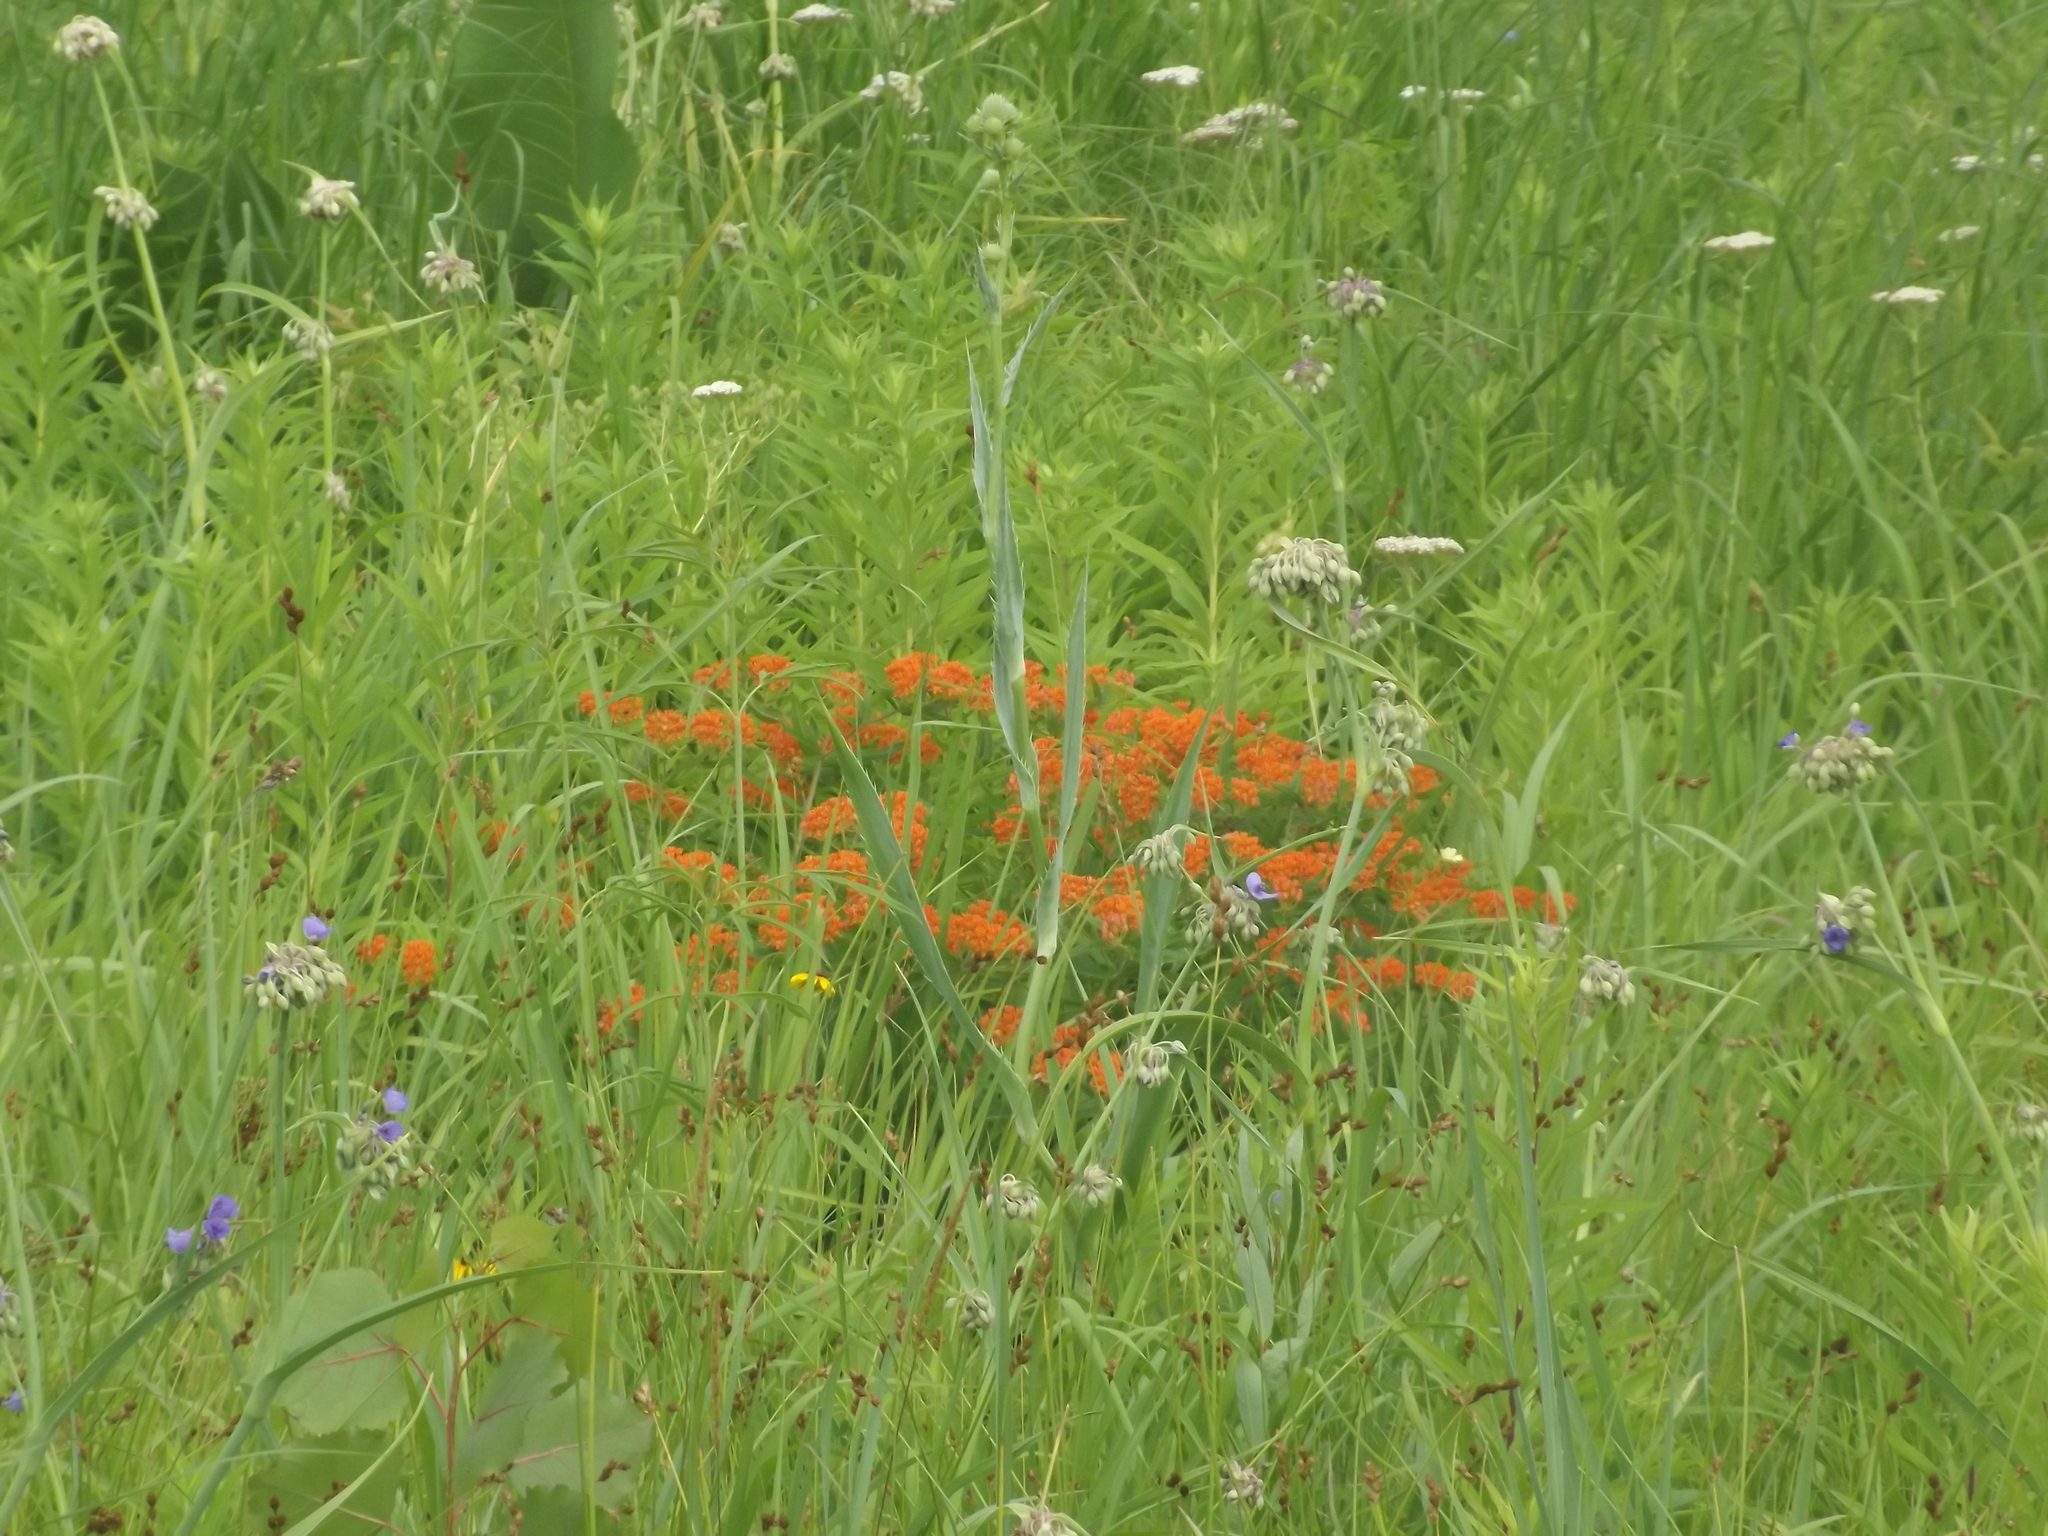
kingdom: Plantae
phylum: Tracheophyta
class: Magnoliopsida
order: Gentianales
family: Apocynaceae
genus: Asclepias
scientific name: Asclepias tuberosa
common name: Butterfly milkweed
